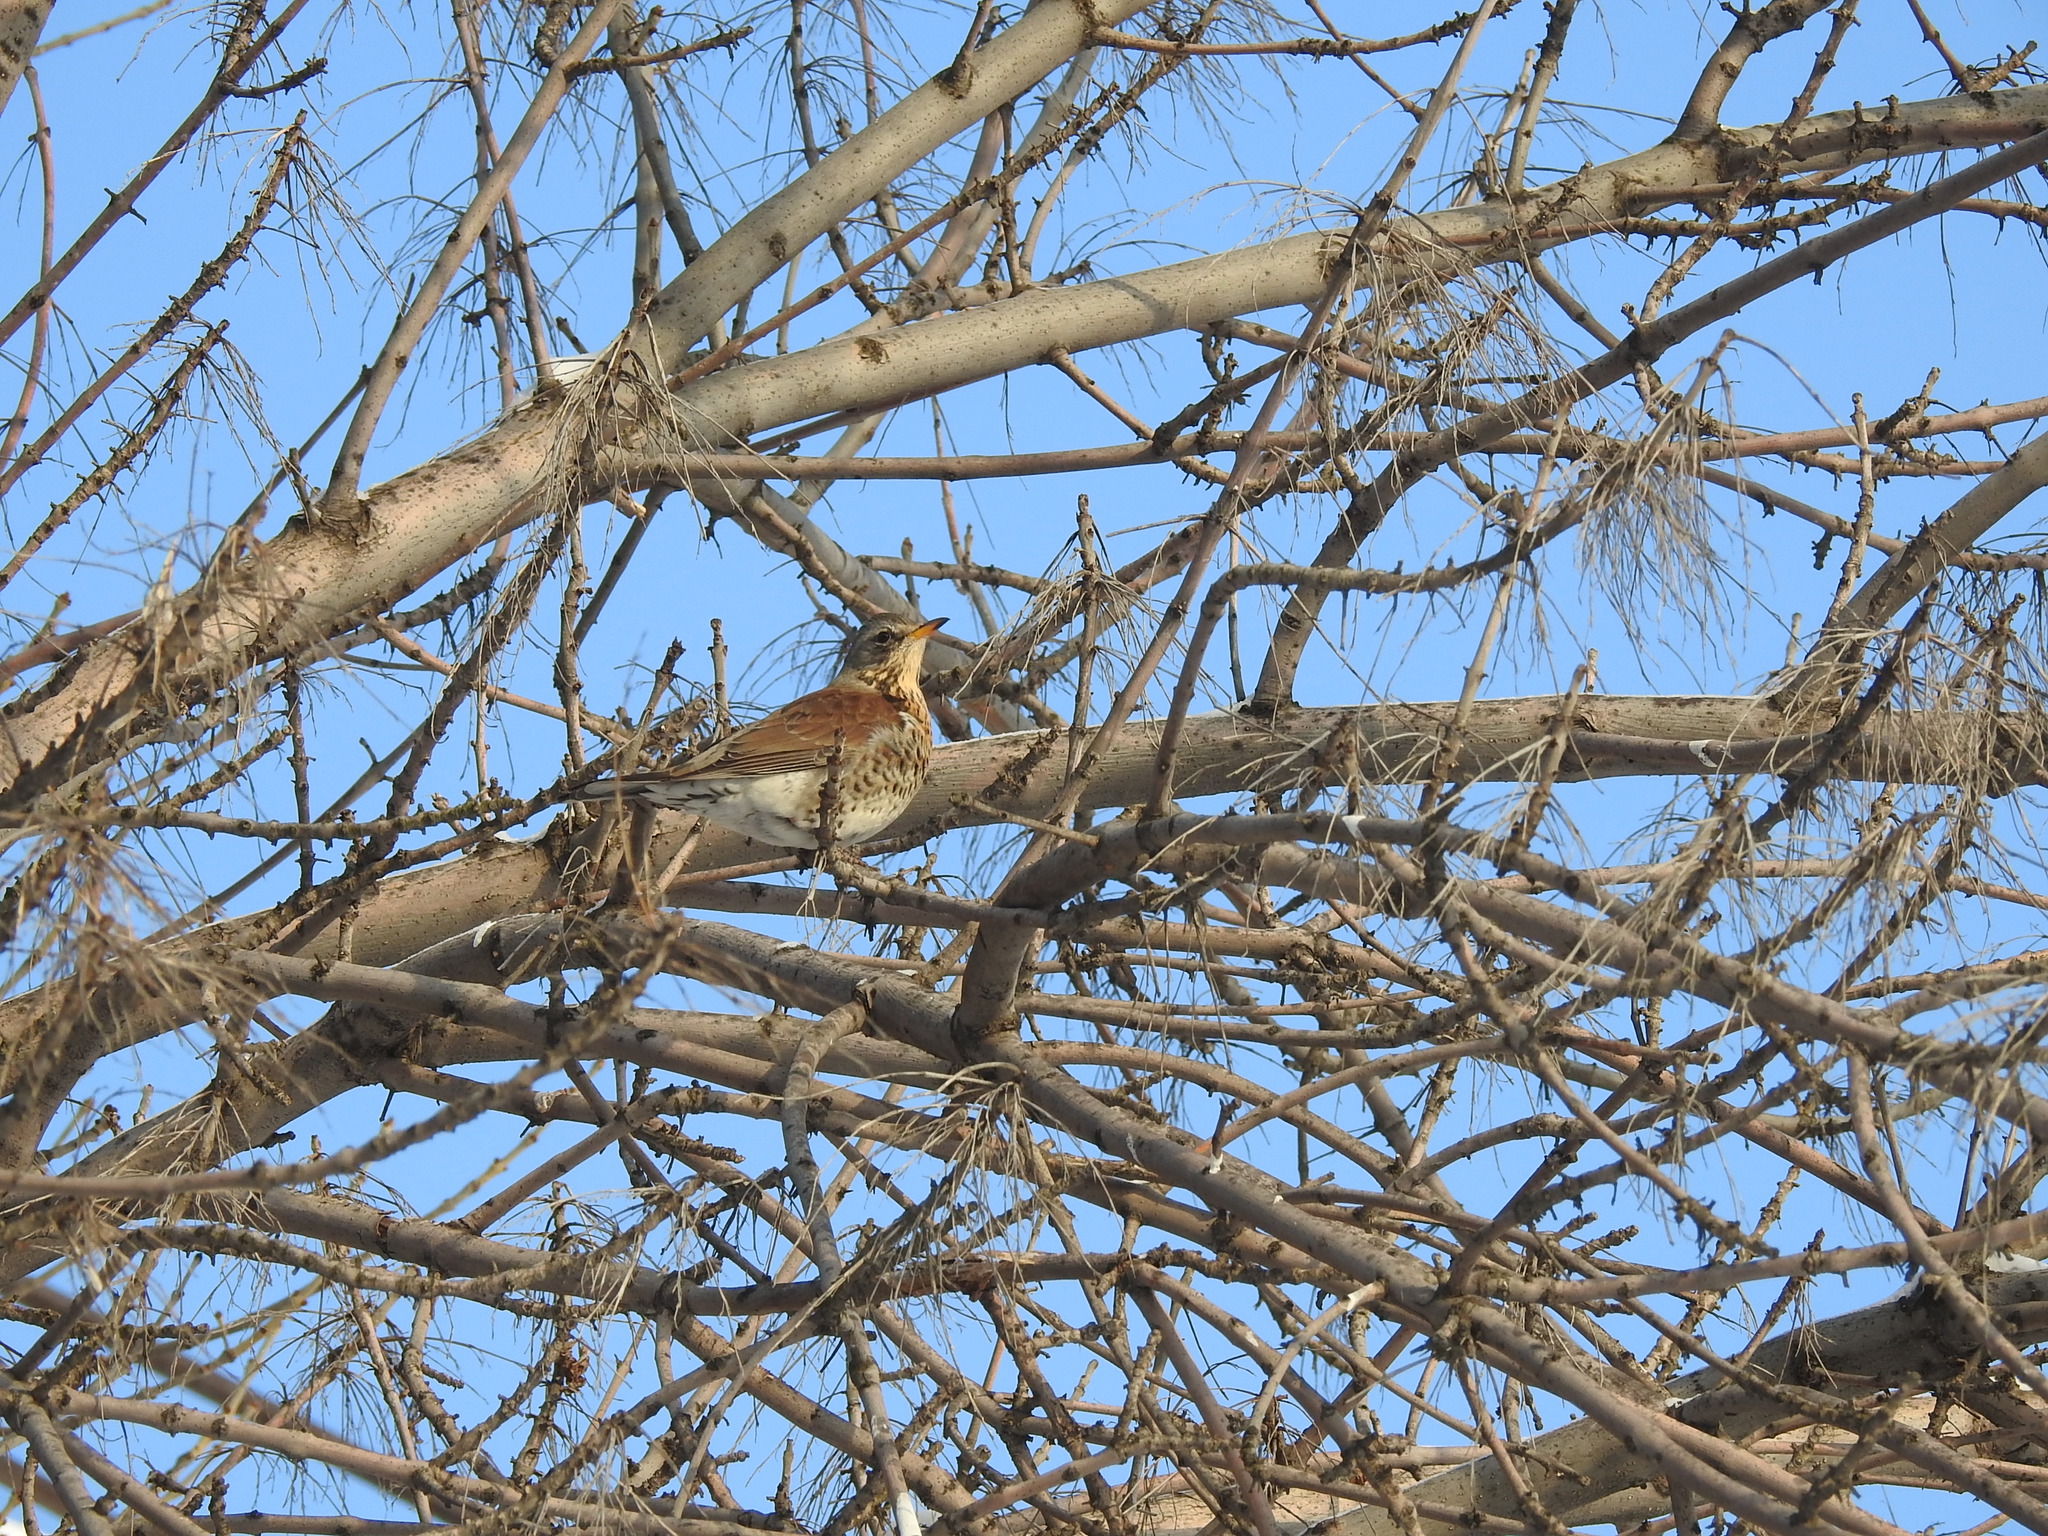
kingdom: Animalia
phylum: Chordata
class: Aves
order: Passeriformes
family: Turdidae
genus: Turdus
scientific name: Turdus pilaris
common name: Fieldfare
